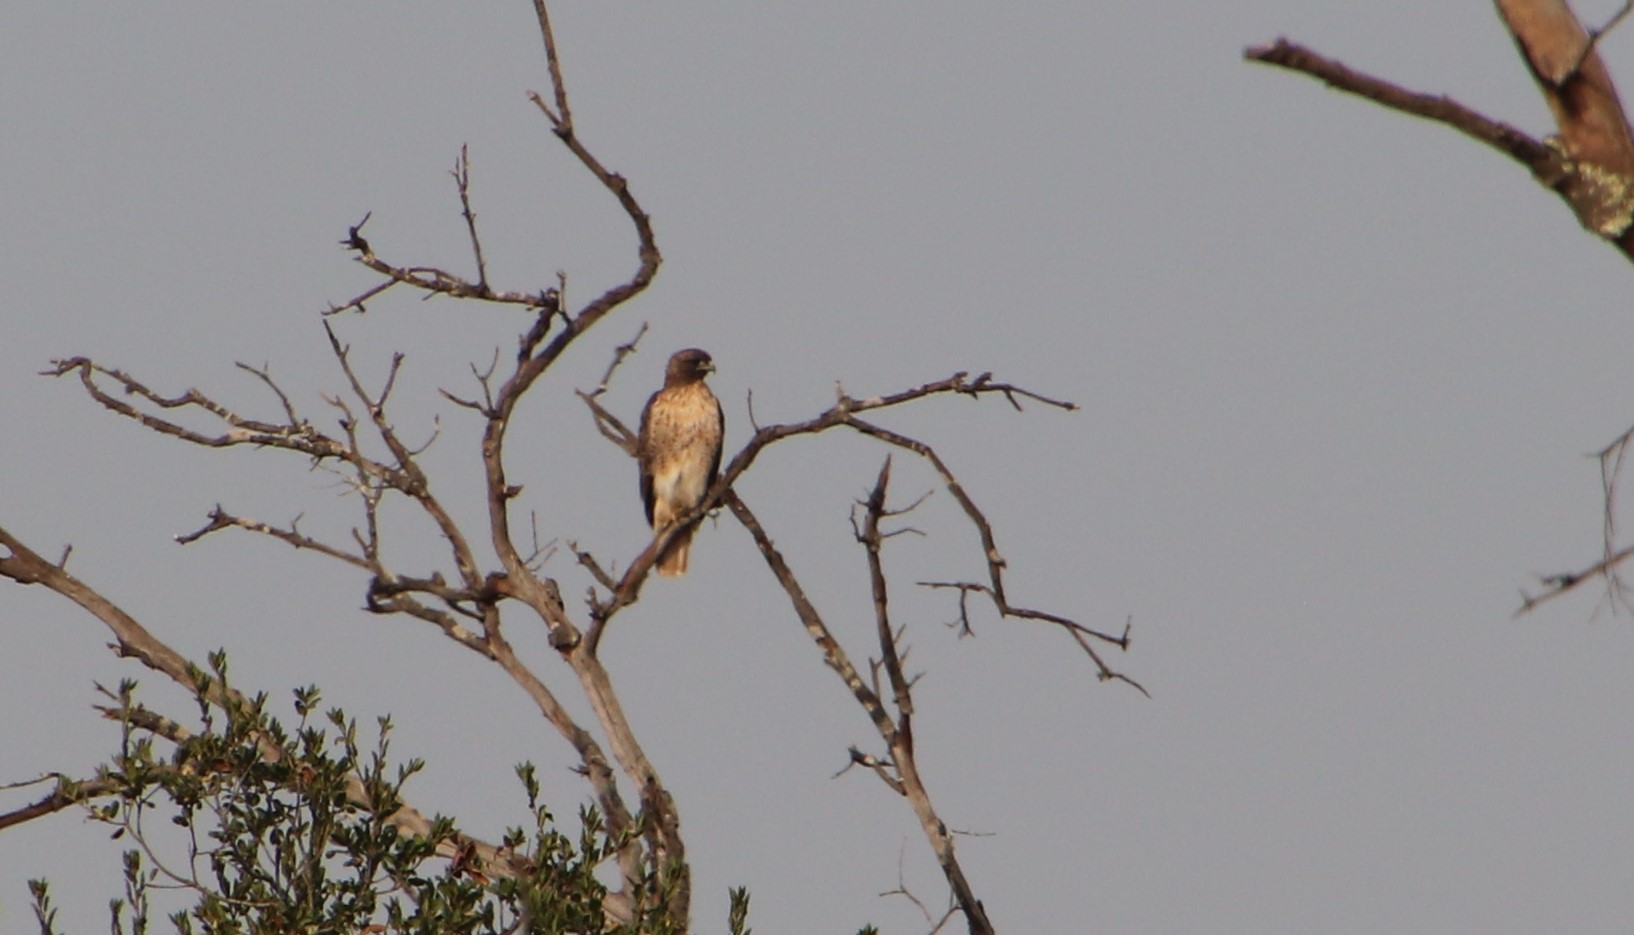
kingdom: Animalia
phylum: Chordata
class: Aves
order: Accipitriformes
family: Accipitridae
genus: Buteo
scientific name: Buteo jamaicensis
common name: Red-tailed hawk
